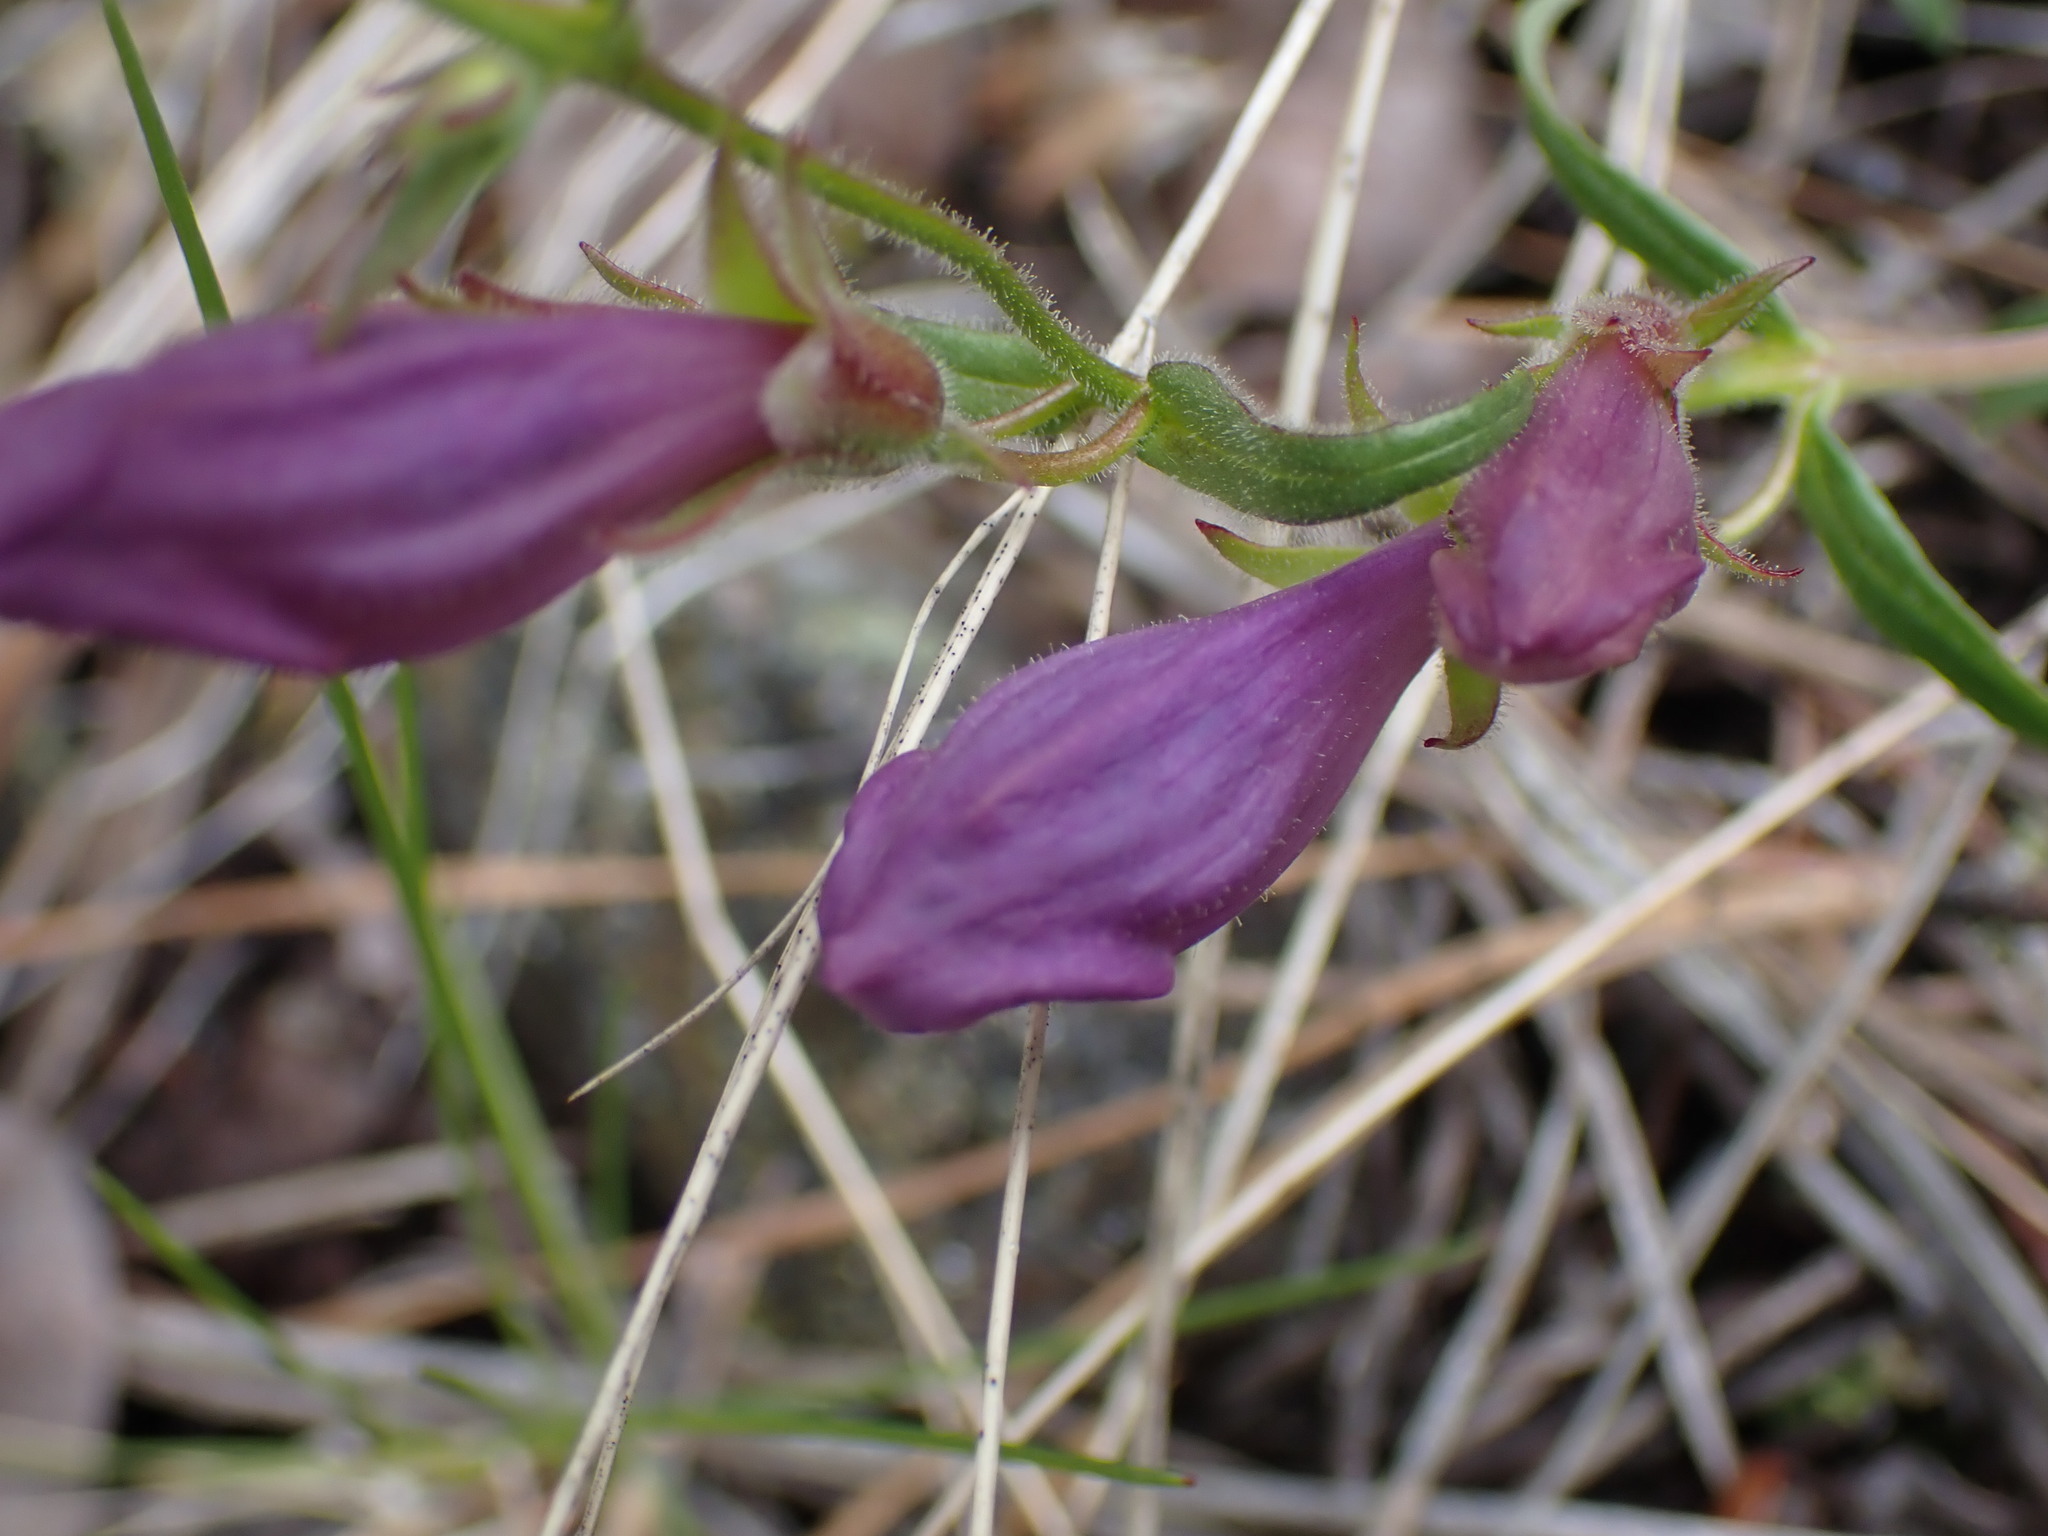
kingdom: Plantae
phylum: Tracheophyta
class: Magnoliopsida
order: Lamiales
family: Plantaginaceae
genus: Penstemon
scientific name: Penstemon fruticosus
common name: Bush penstemon
